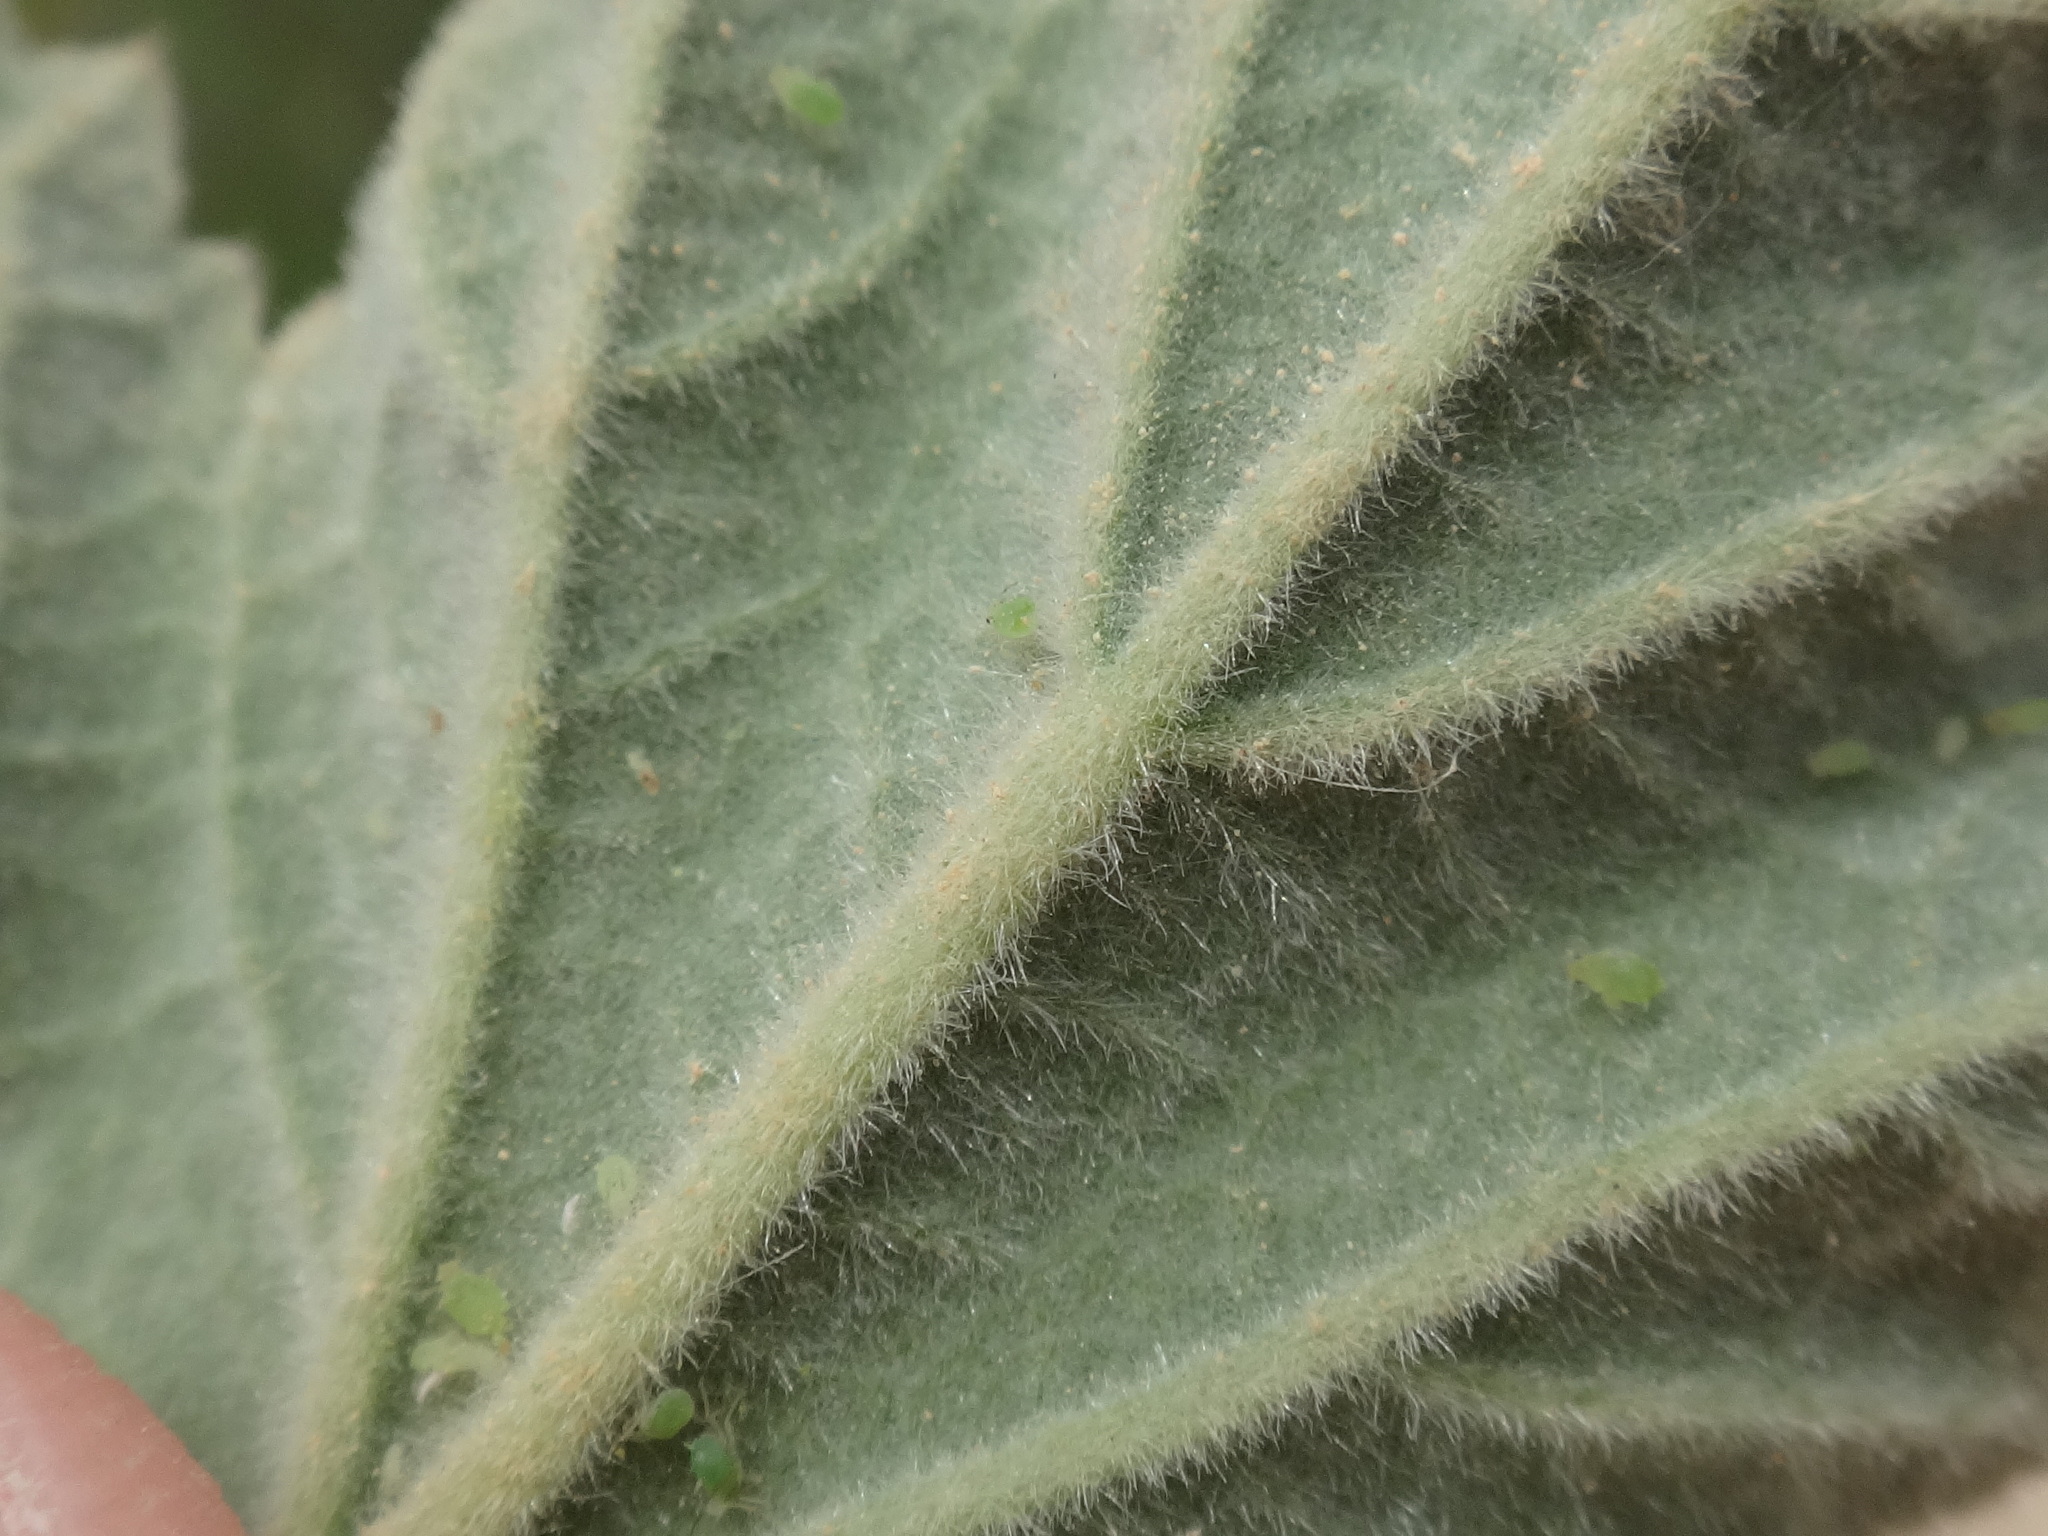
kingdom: Plantae
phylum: Tracheophyta
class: Magnoliopsida
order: Malvales
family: Malvaceae
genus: Althaea
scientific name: Althaea officinalis
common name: Marsh-mallow
